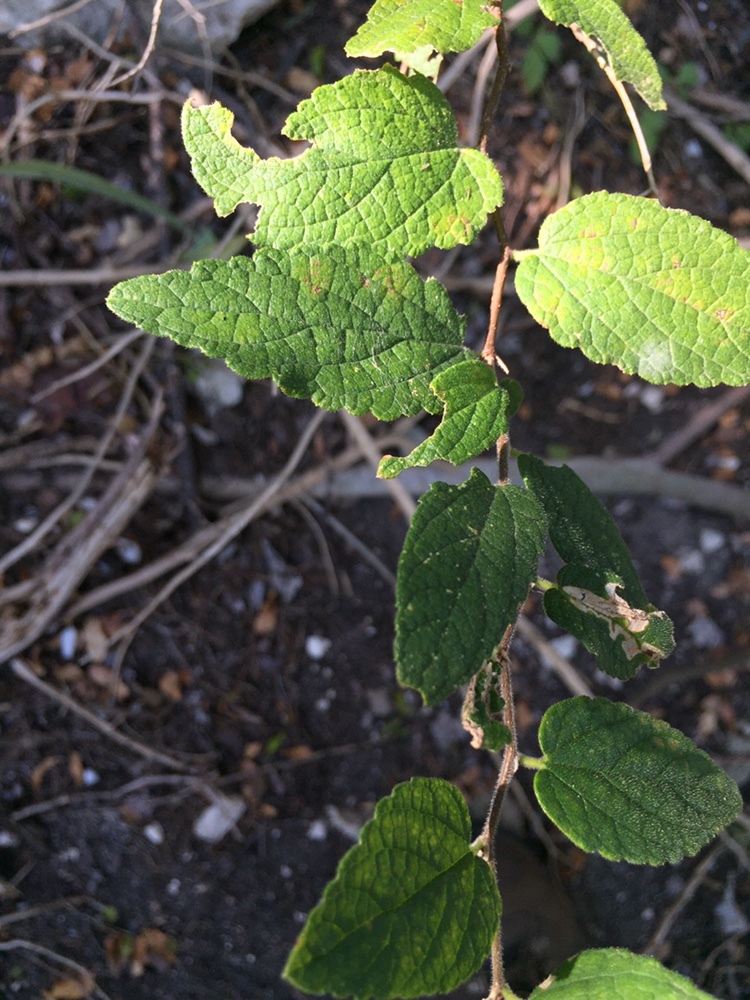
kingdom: Plantae
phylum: Tracheophyta
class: Magnoliopsida
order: Rosales
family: Cannabaceae
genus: Celtis
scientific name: Celtis reticulata
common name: Netleaf hackberry
